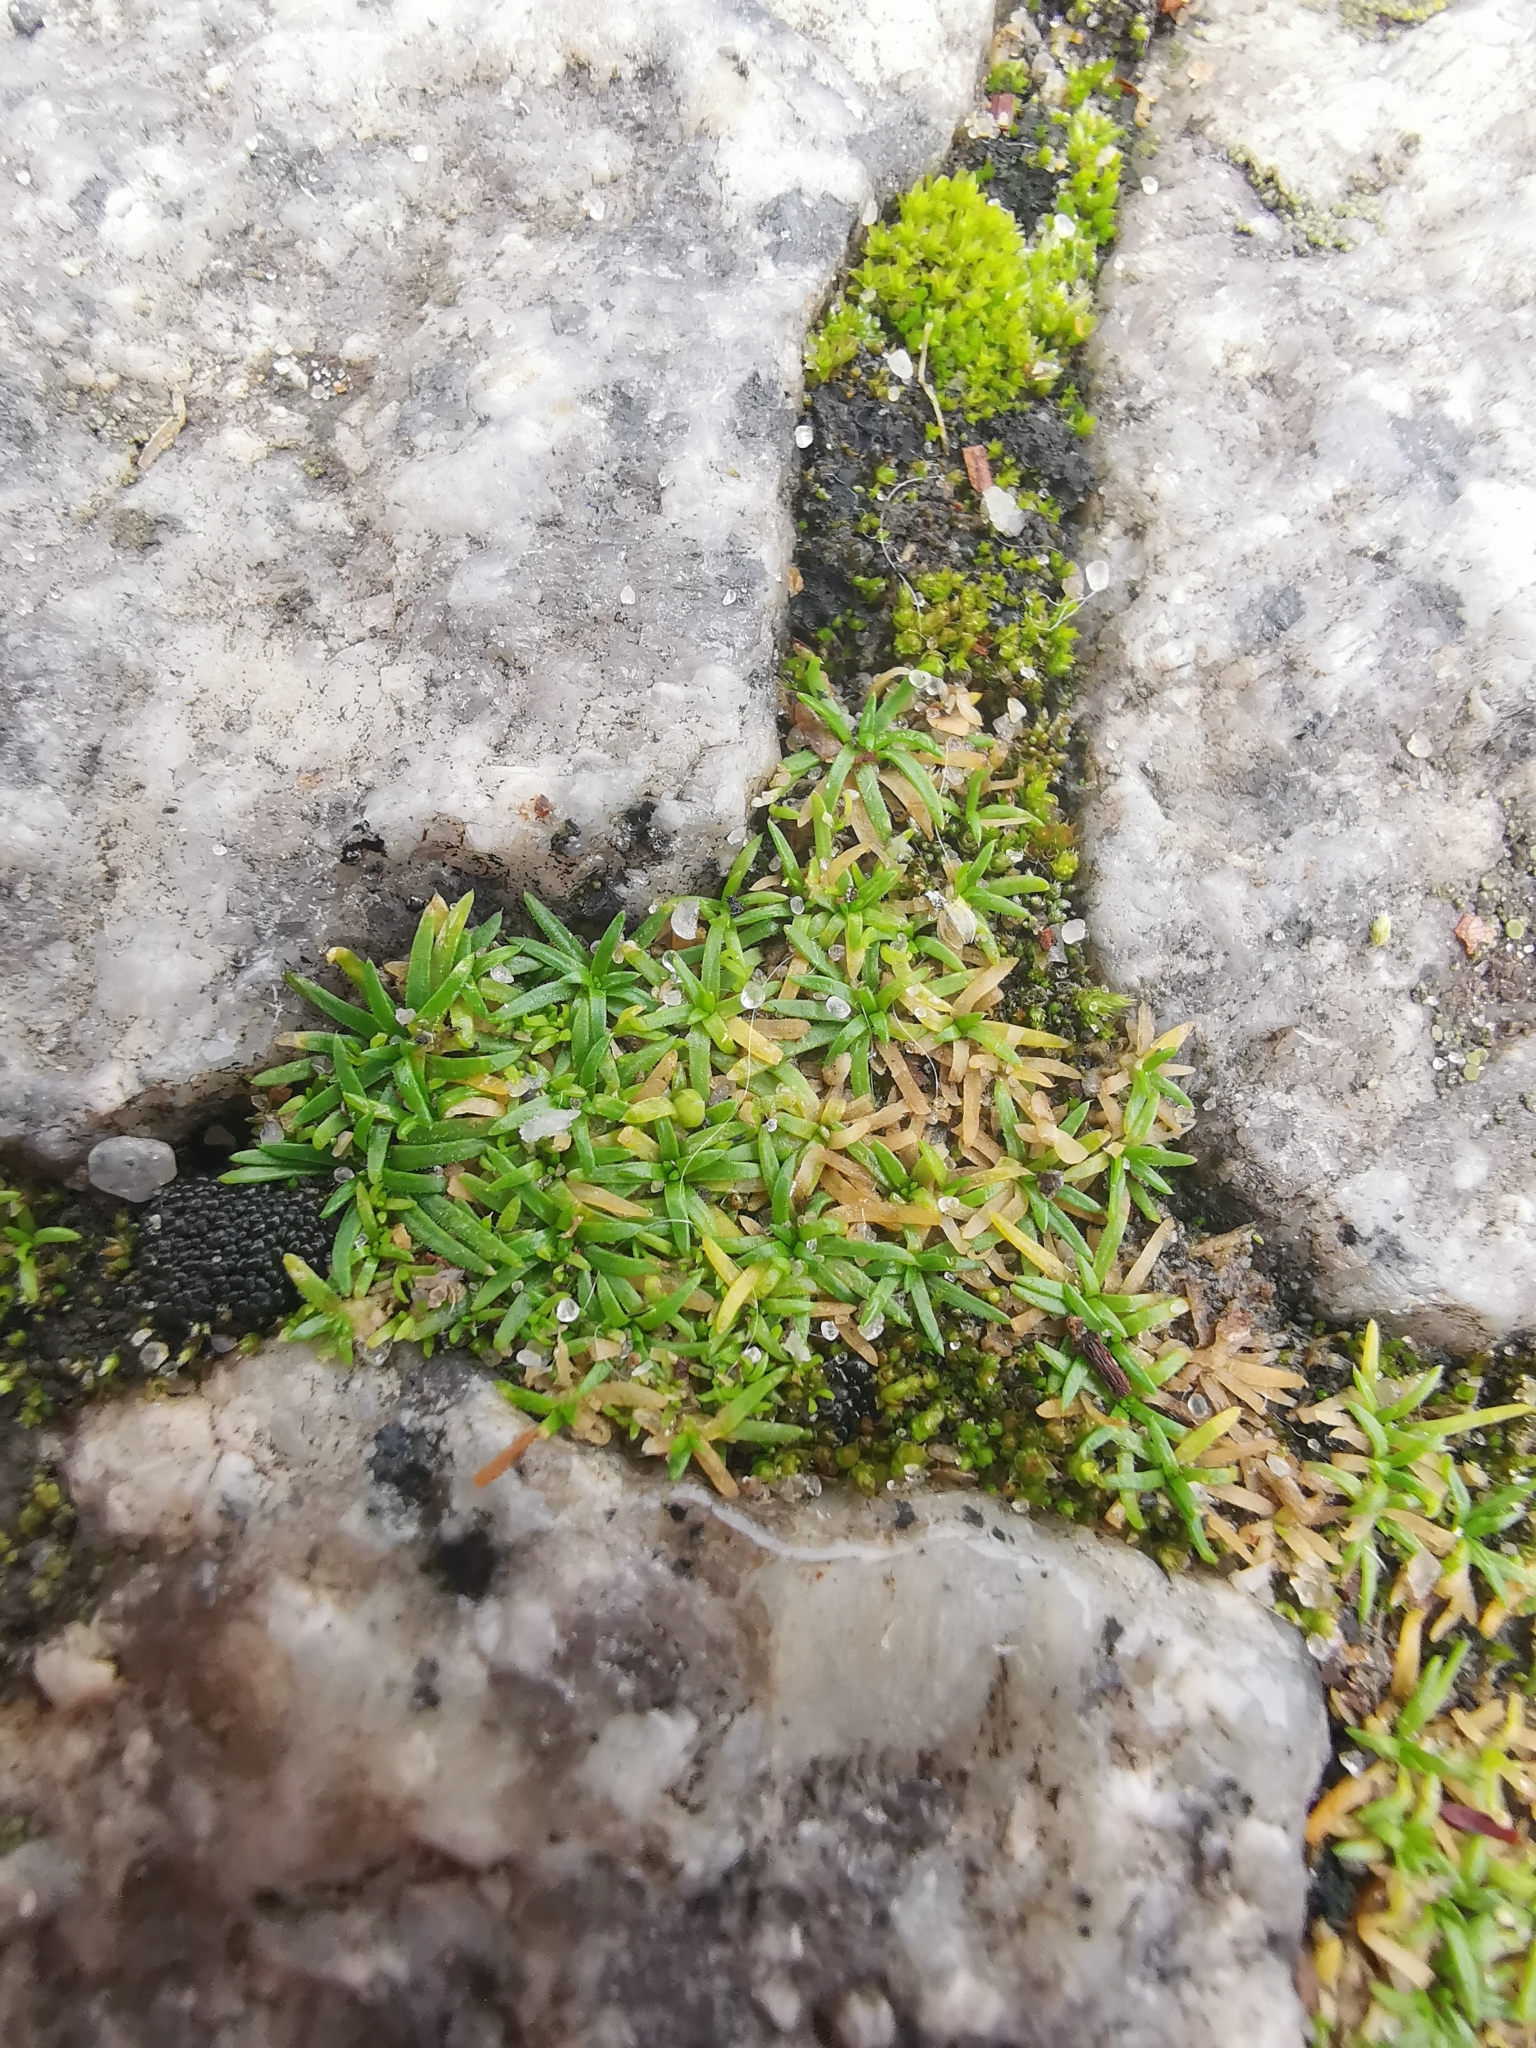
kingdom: Plantae
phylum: Tracheophyta
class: Magnoliopsida
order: Caryophyllales
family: Caryophyllaceae
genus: Sagina
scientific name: Sagina procumbens
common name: Procumbent pearlwort
